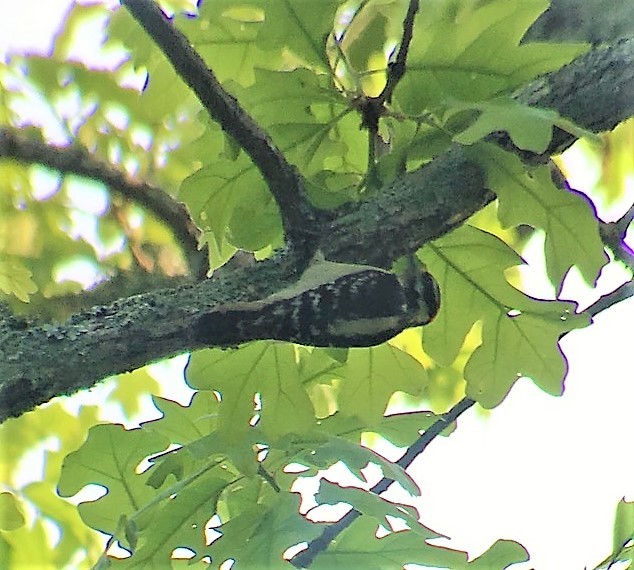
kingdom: Animalia
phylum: Chordata
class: Aves
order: Piciformes
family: Picidae
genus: Leuconotopicus
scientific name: Leuconotopicus villosus
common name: Hairy woodpecker
